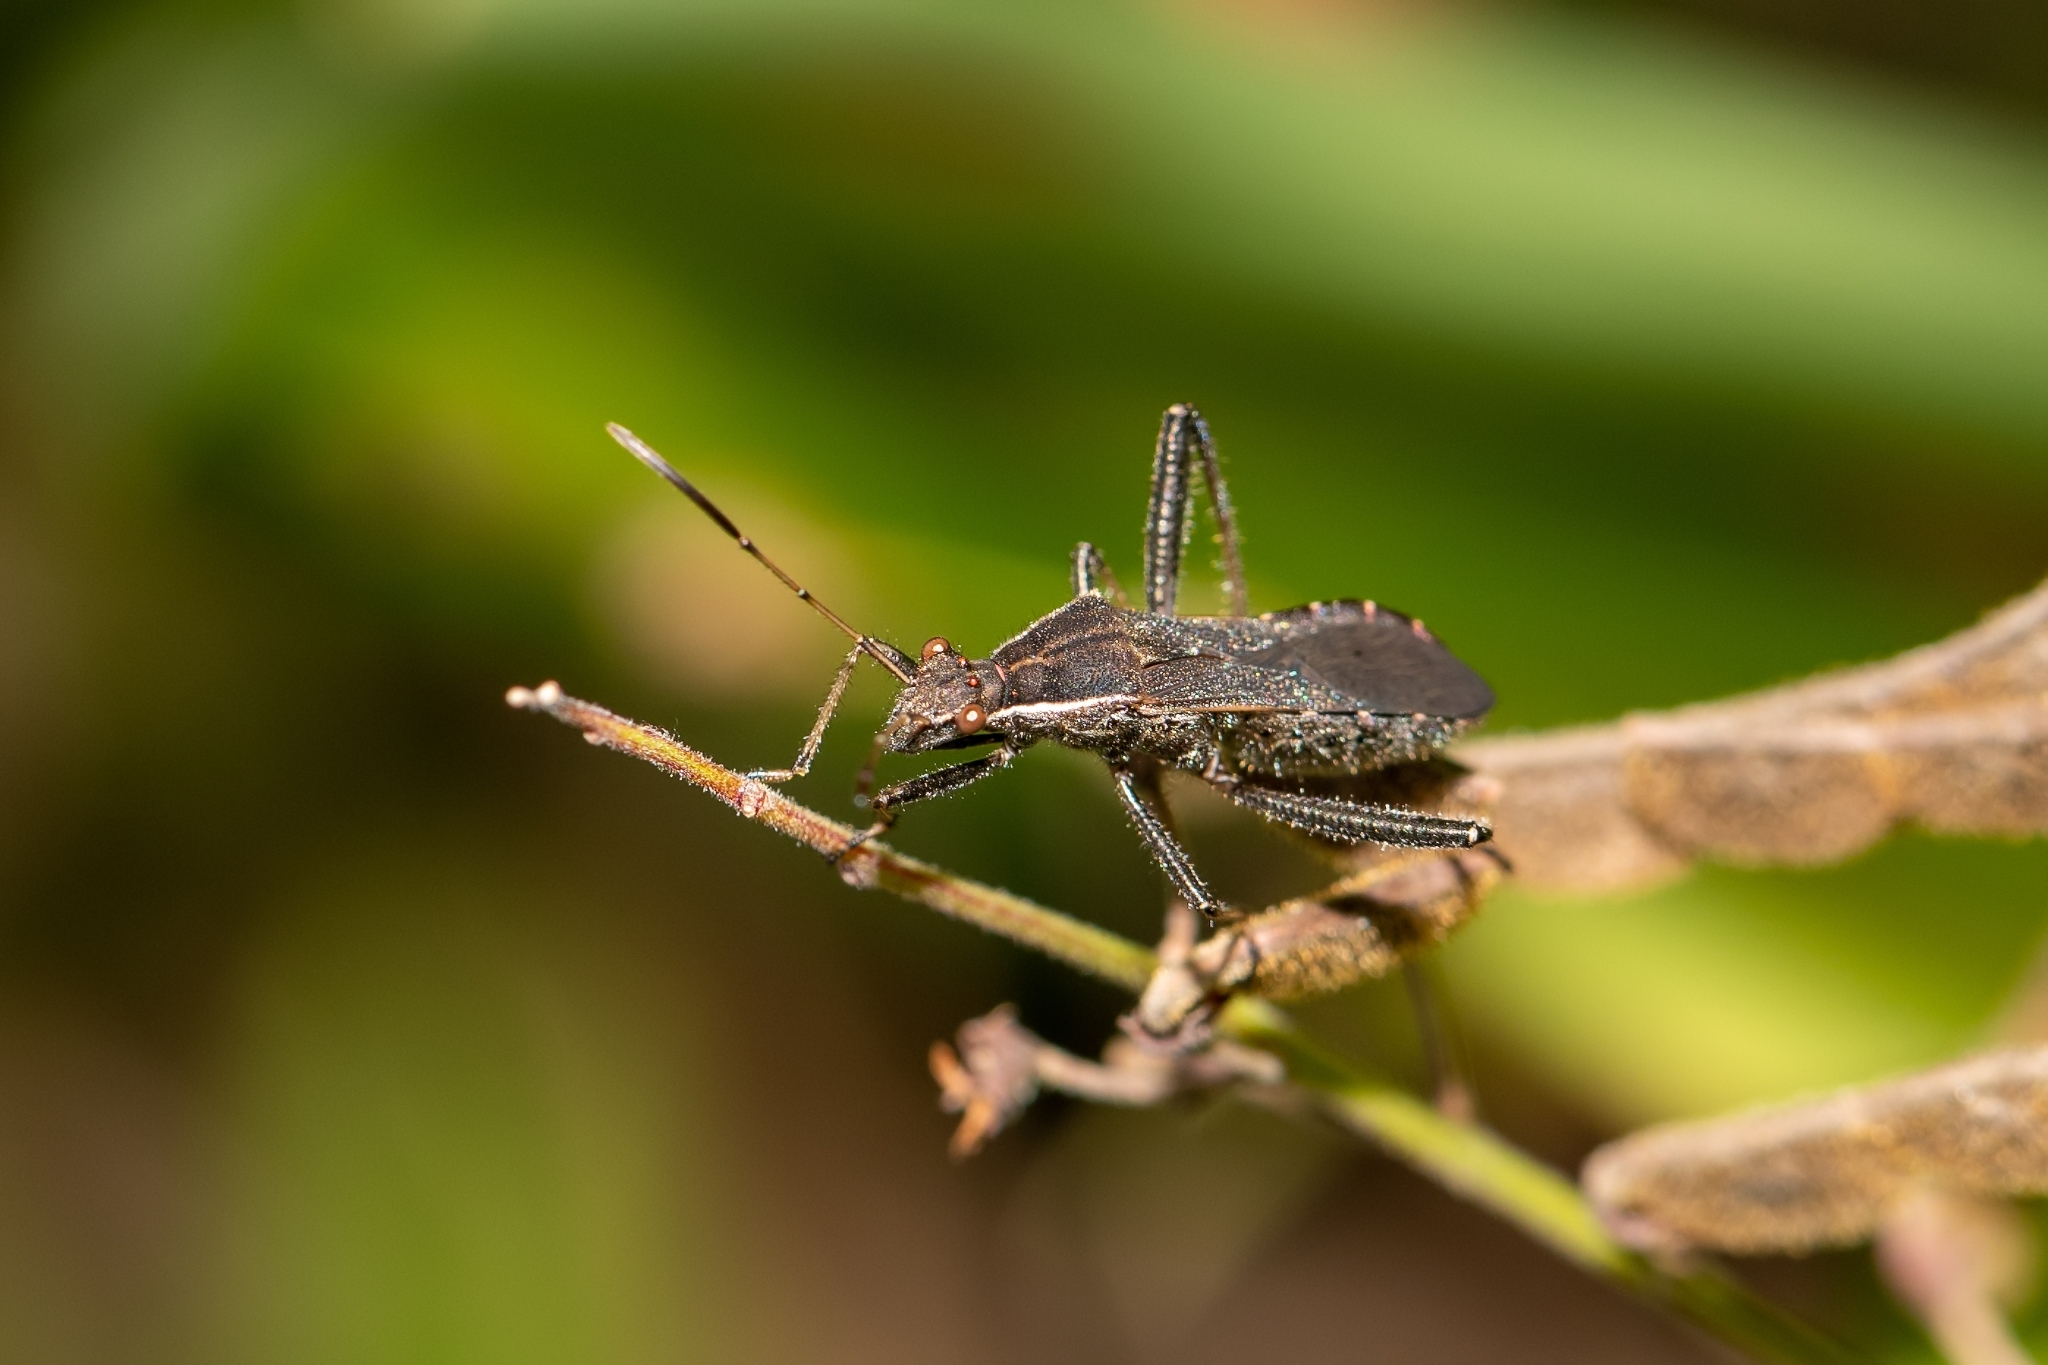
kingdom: Animalia
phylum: Arthropoda
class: Insecta
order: Hemiptera
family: Alydidae
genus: Alydus
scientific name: Alydus pilosulus
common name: Broad-headed bug
